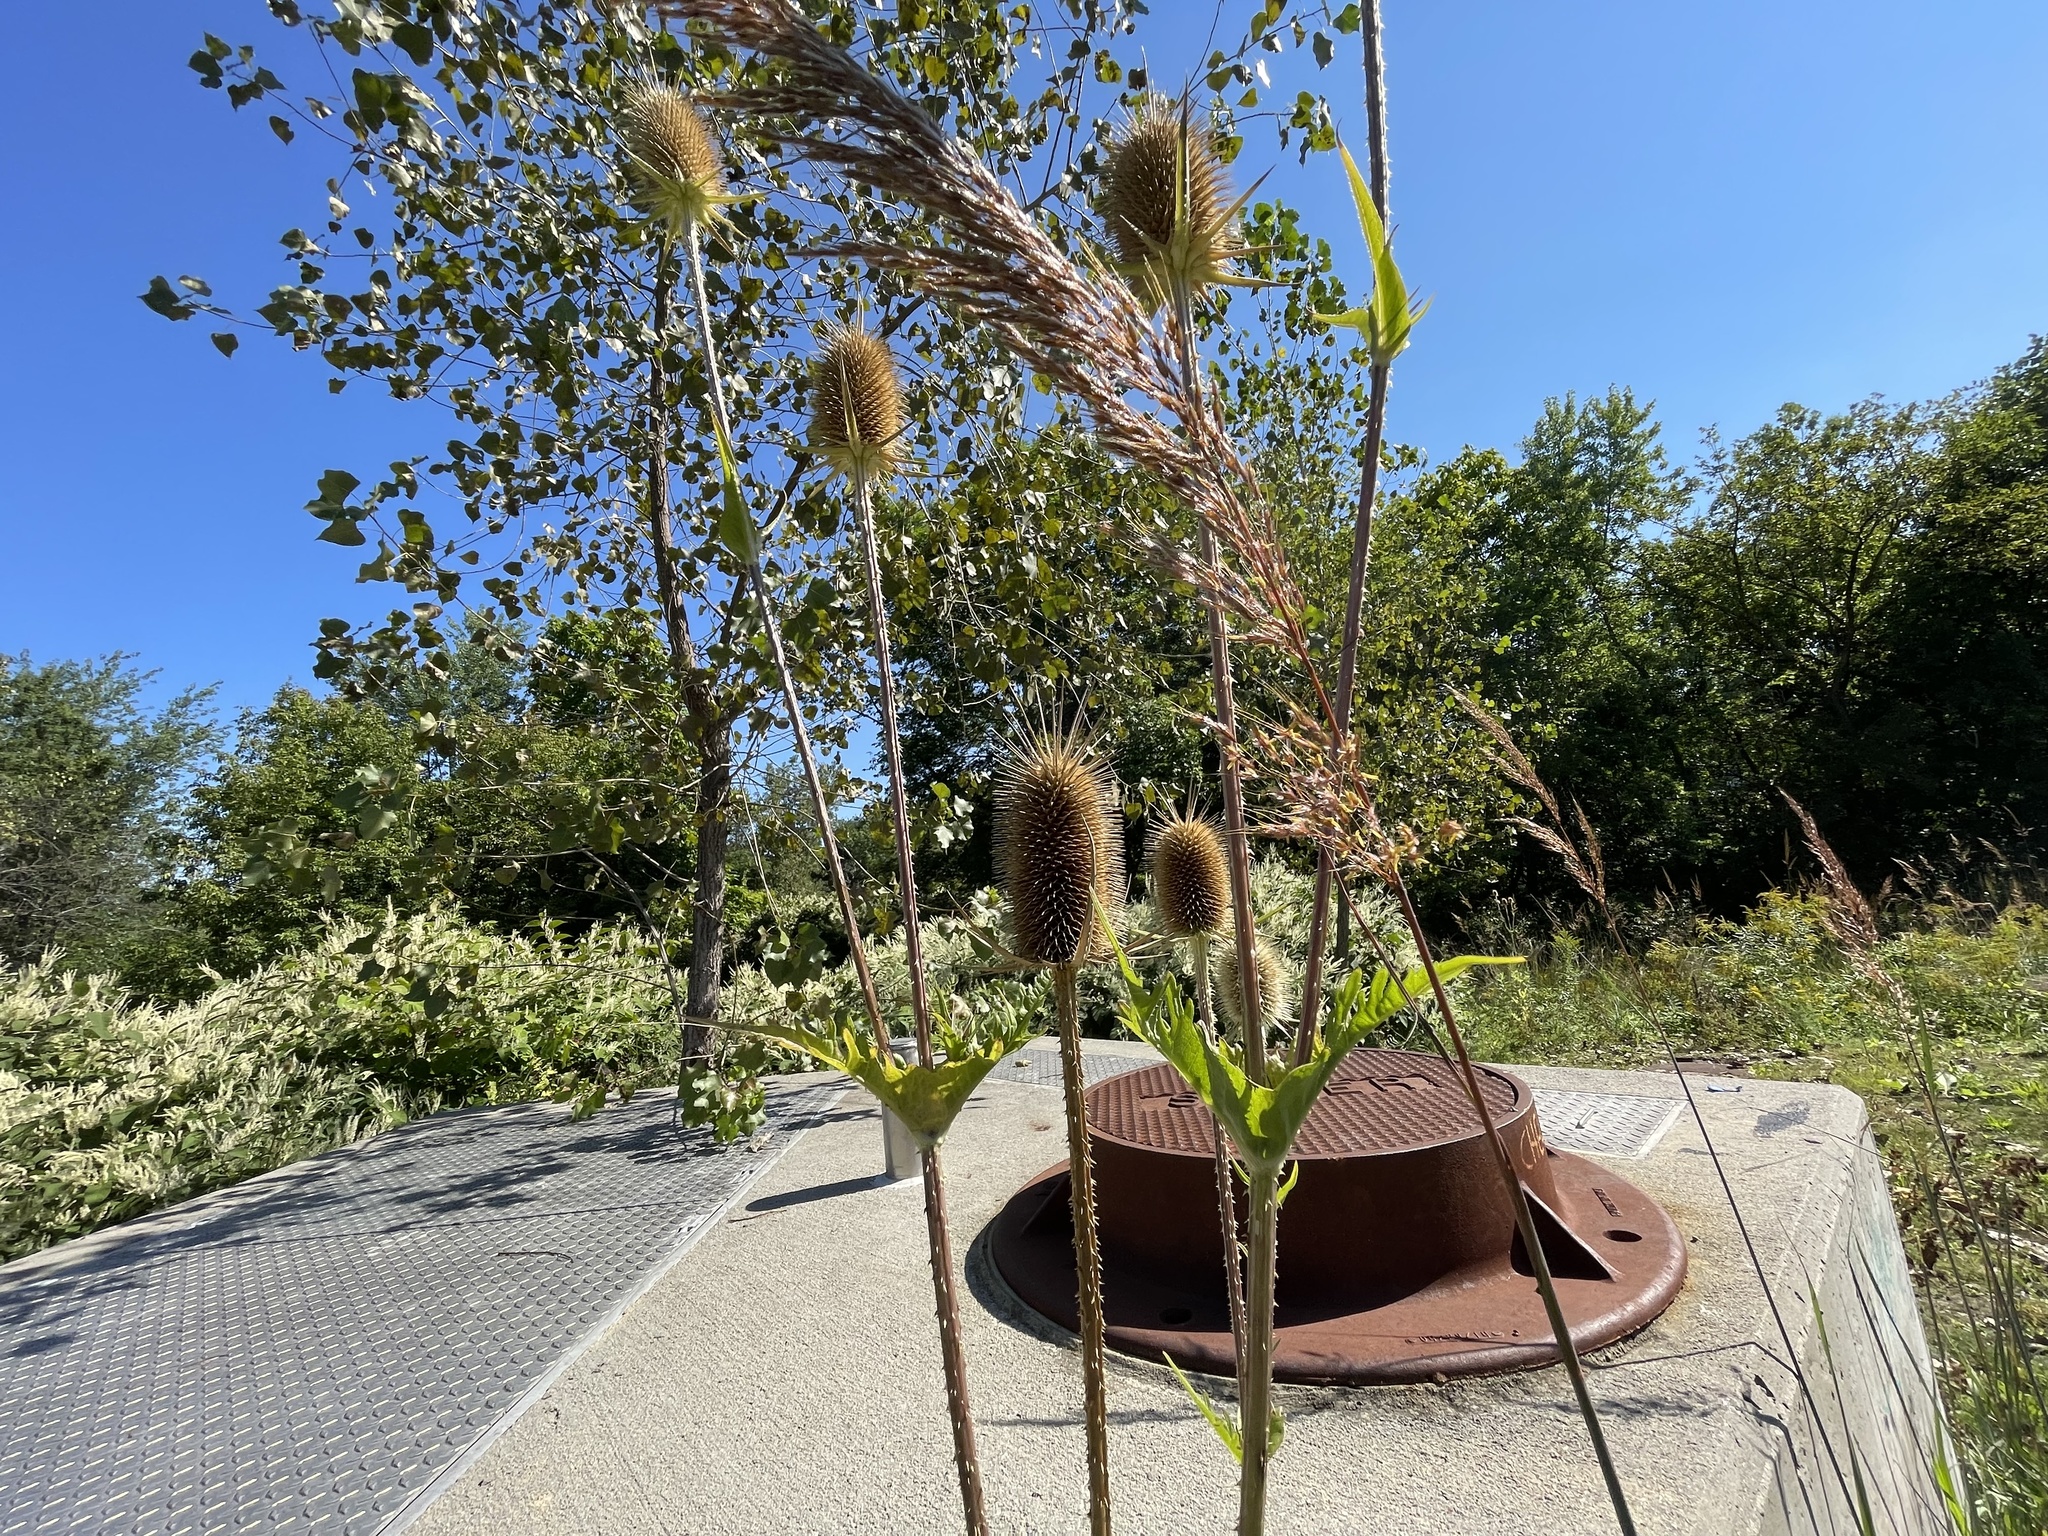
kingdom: Plantae
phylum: Tracheophyta
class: Magnoliopsida
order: Dipsacales
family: Caprifoliaceae
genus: Dipsacus
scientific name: Dipsacus laciniatus
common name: Cut-leaved teasel
